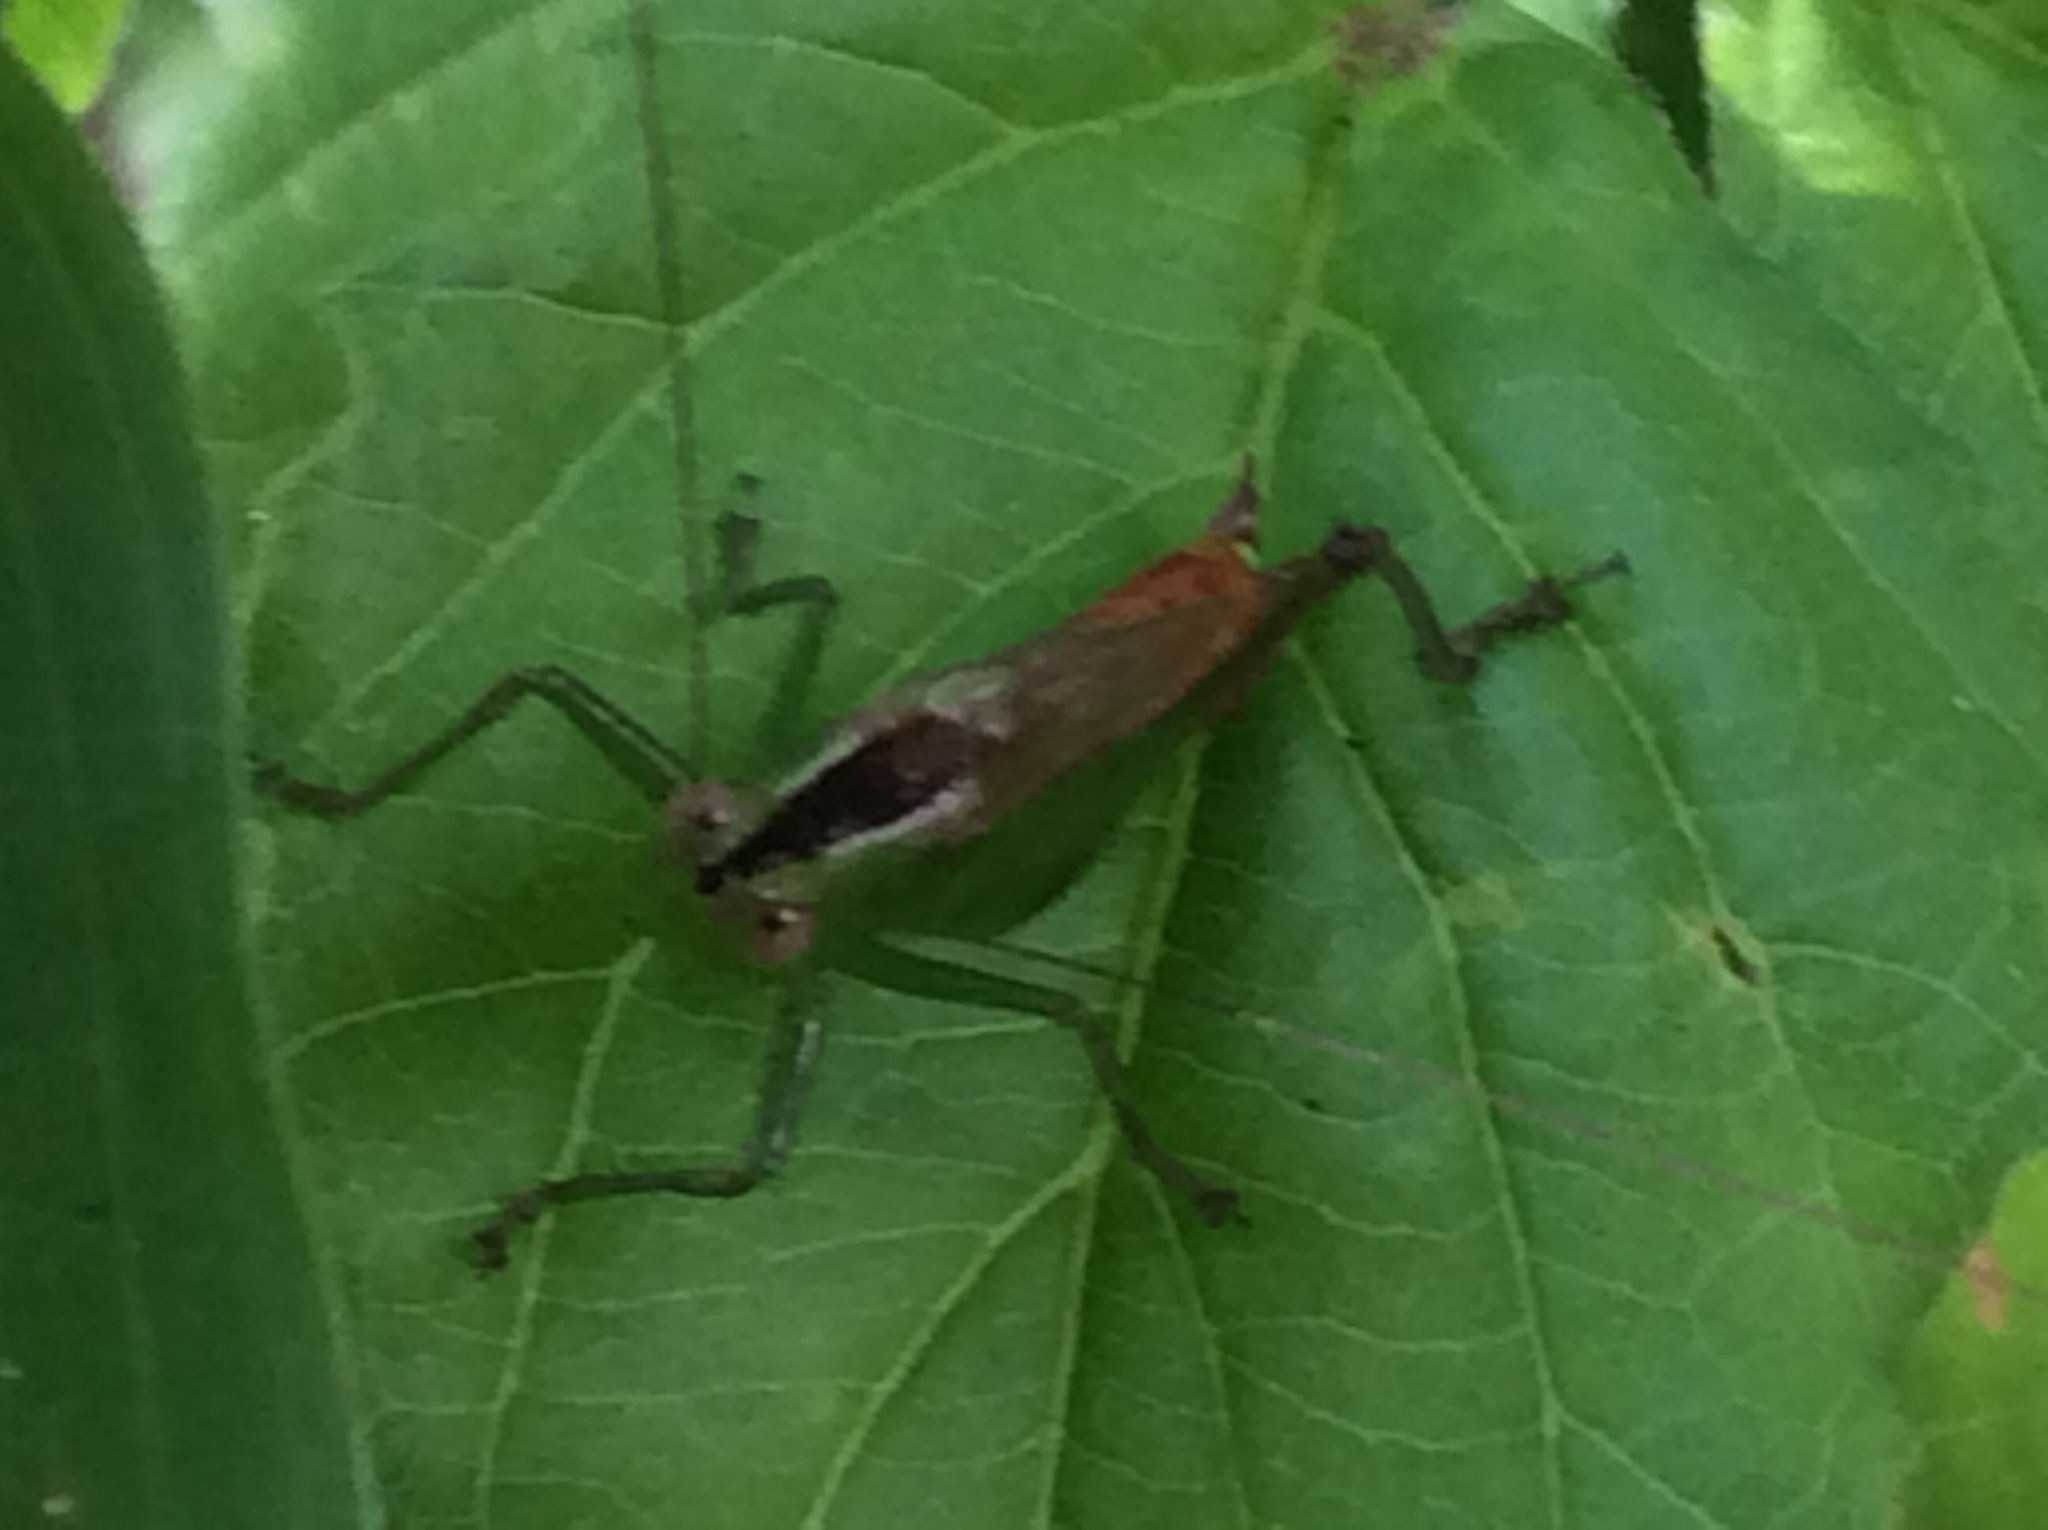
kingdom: Animalia
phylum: Arthropoda
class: Insecta
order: Orthoptera
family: Tettigoniidae
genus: Conocephalus
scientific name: Conocephalus brevipennis
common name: Short-winged meadow katydid
